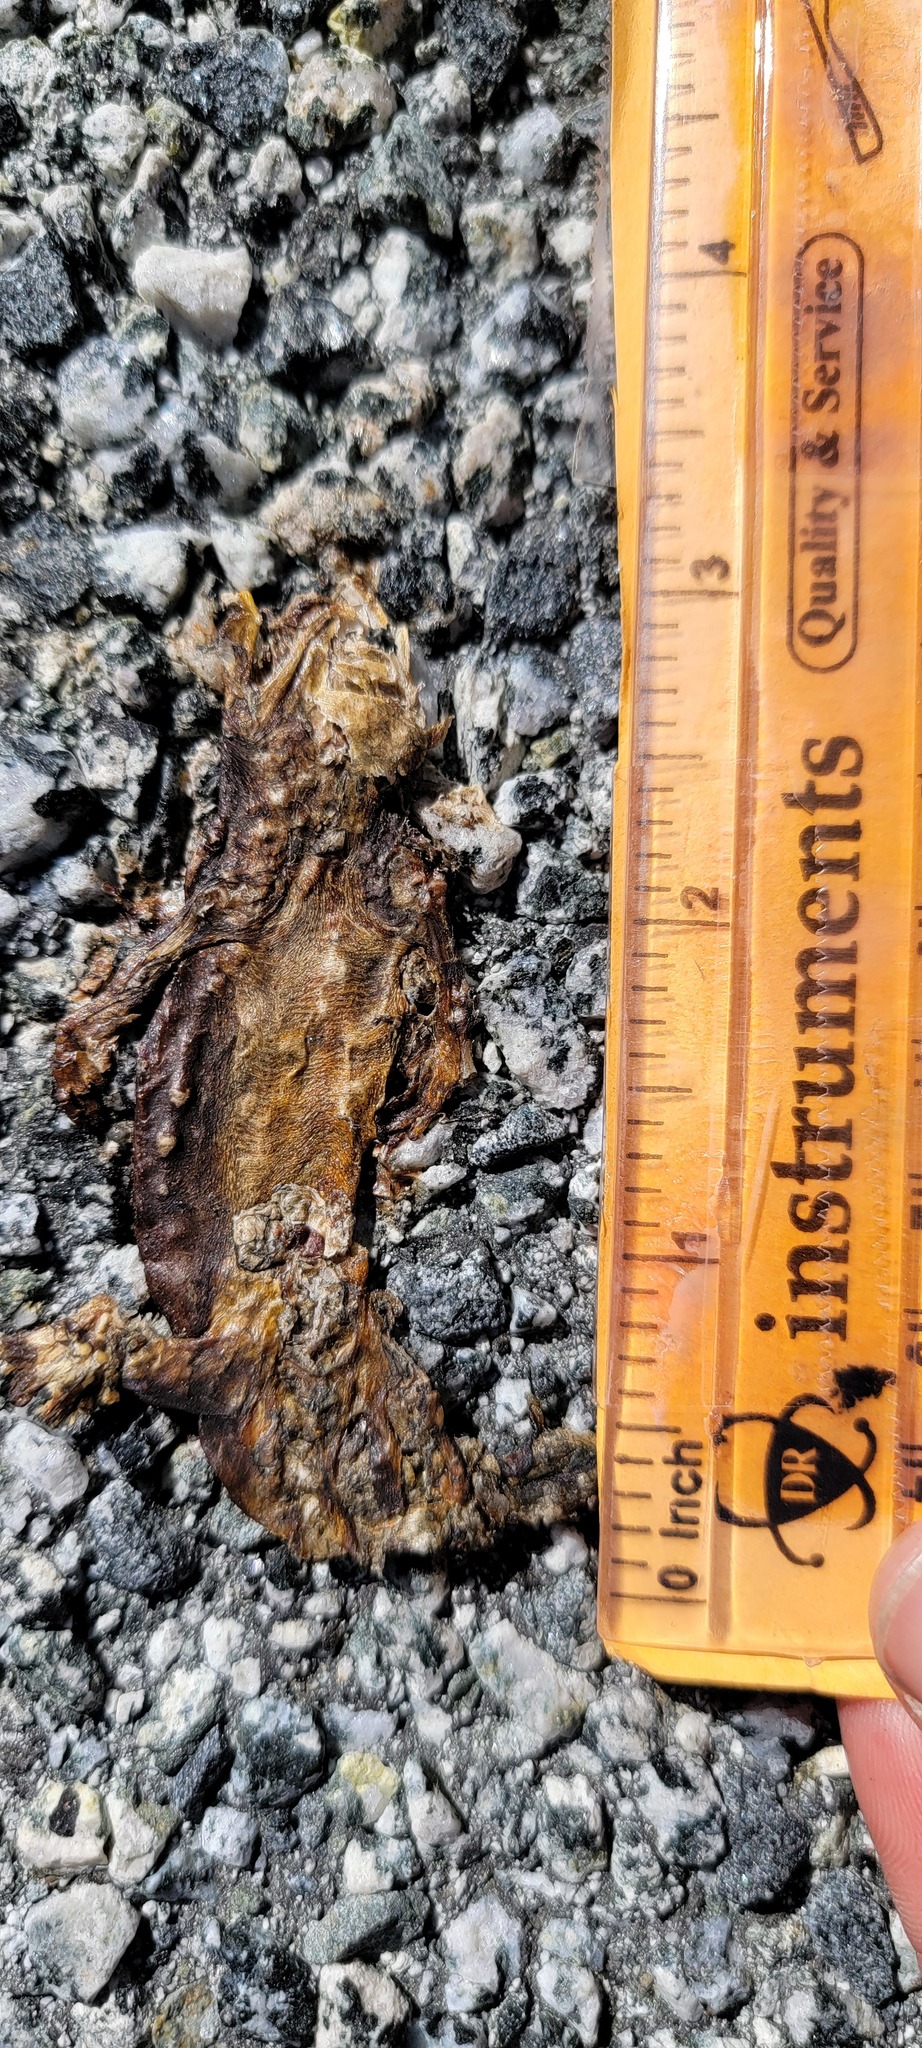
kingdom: Animalia
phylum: Chordata
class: Amphibia
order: Caudata
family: Salamandridae
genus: Taricha
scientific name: Taricha
